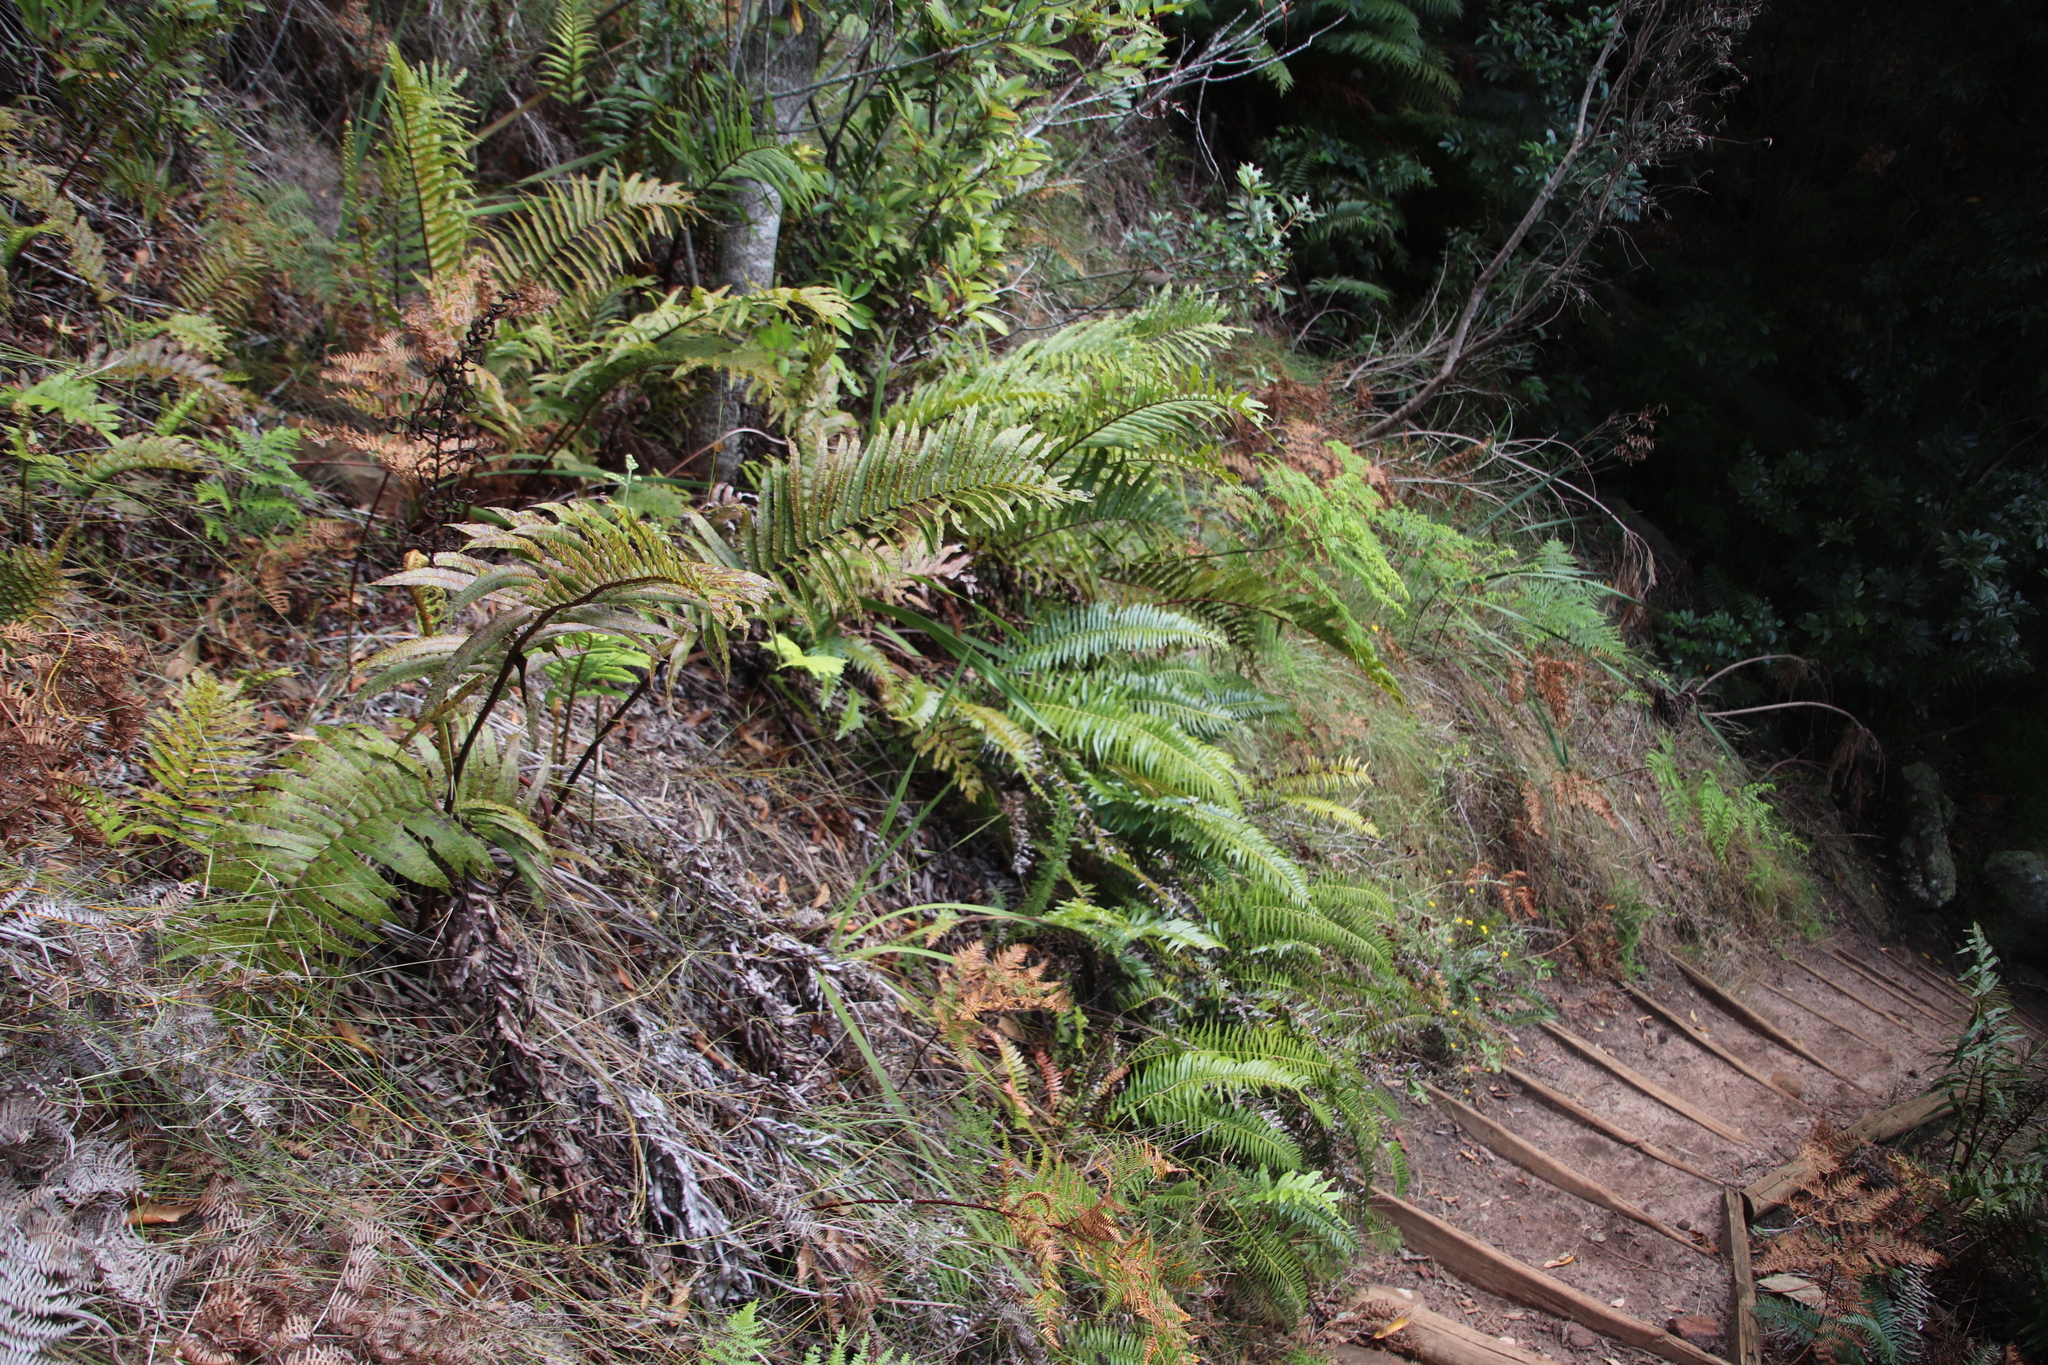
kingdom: Plantae
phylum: Tracheophyta
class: Polypodiopsida
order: Polypodiales
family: Blechnaceae
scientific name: Blechnaceae
